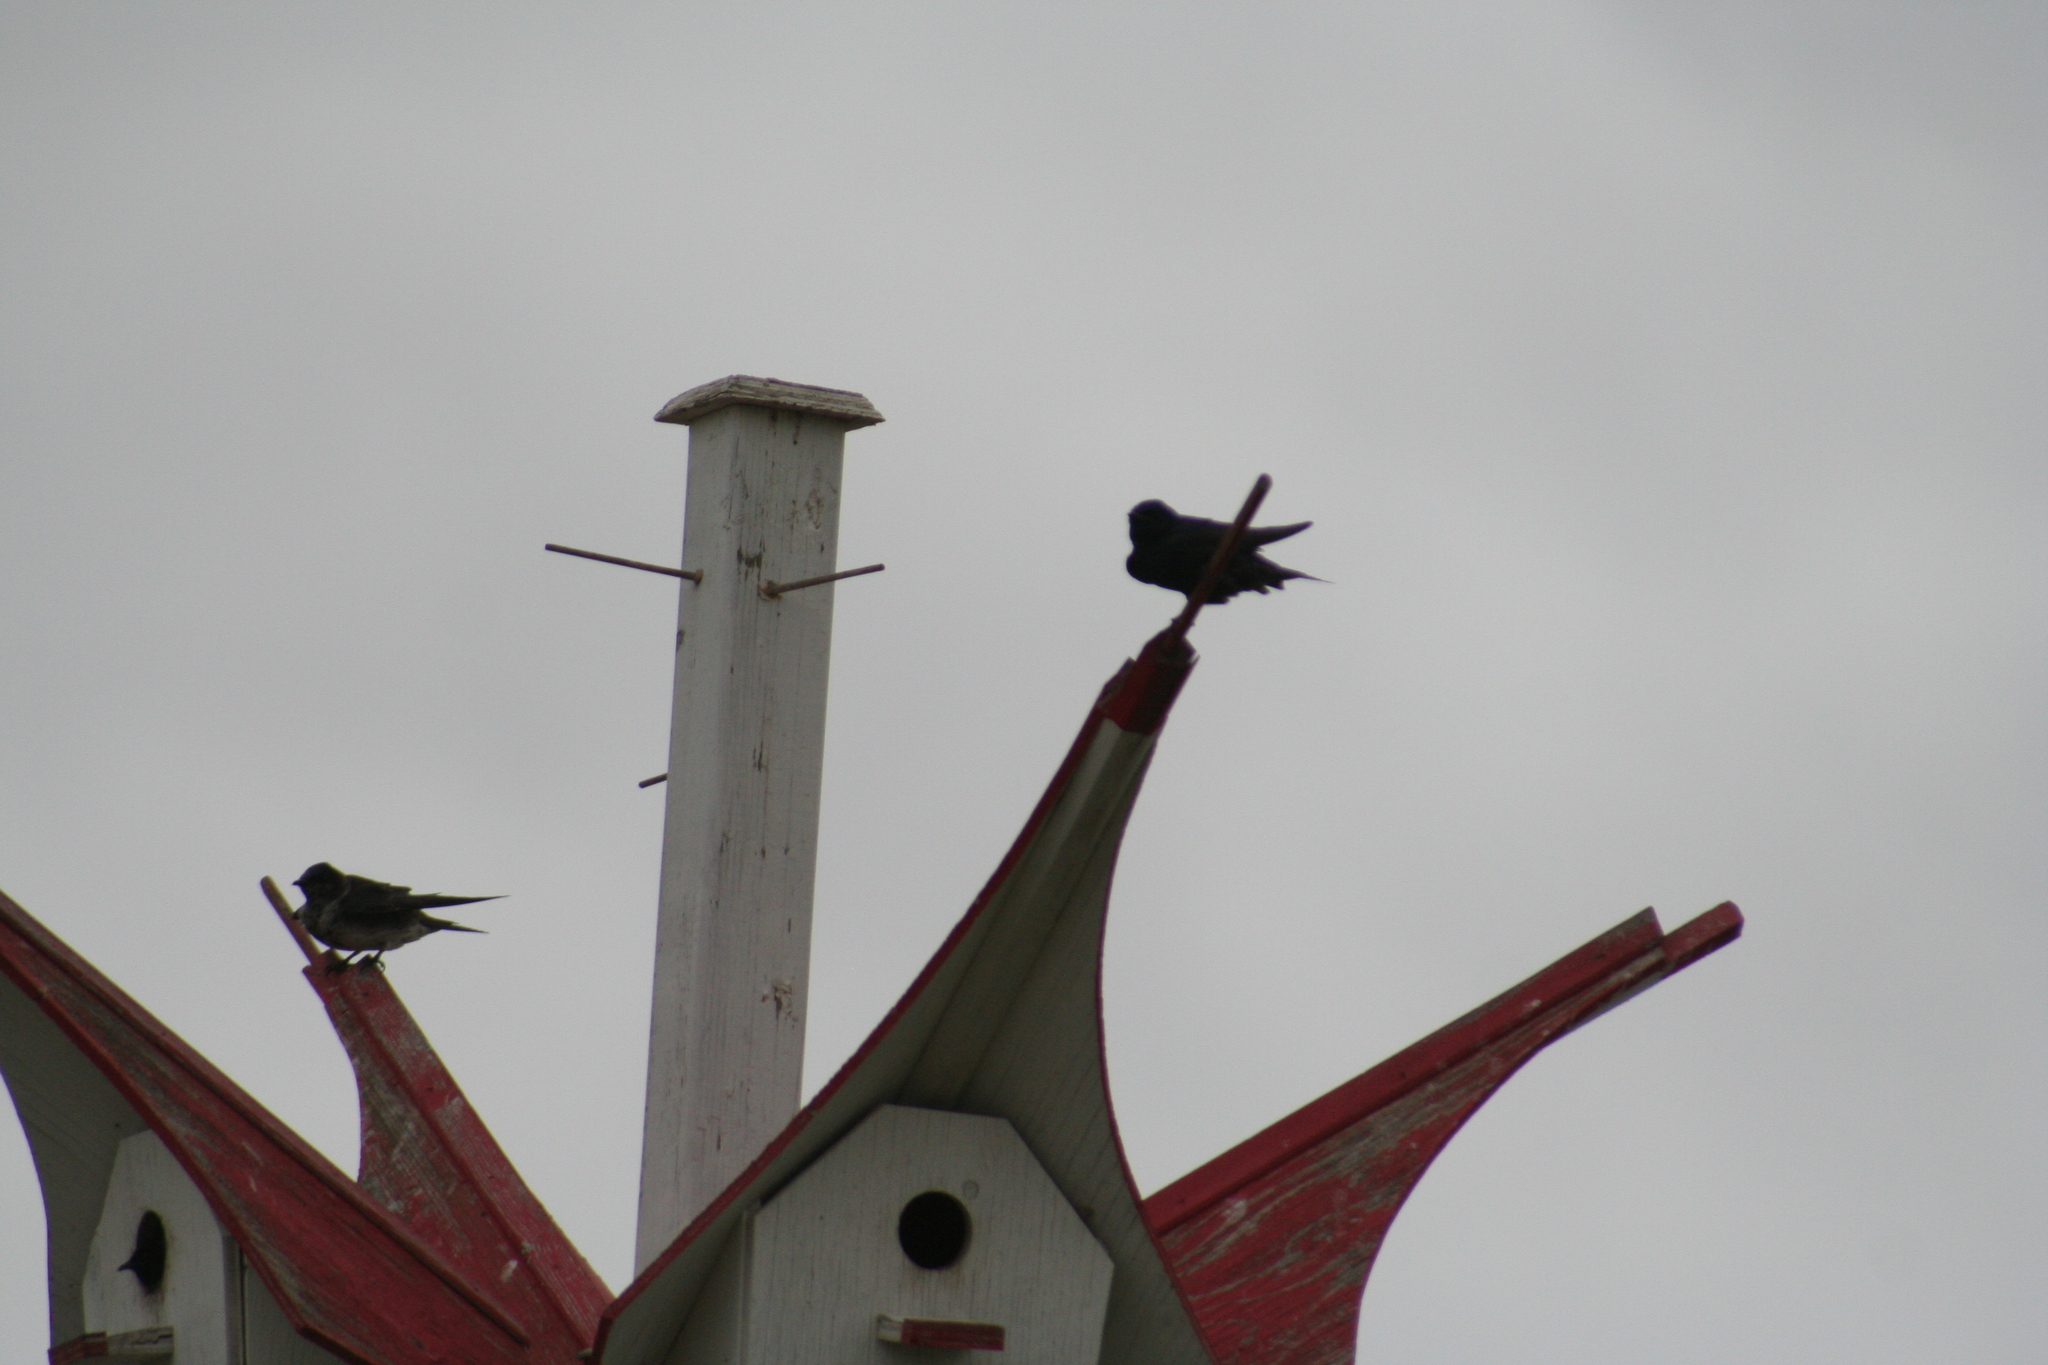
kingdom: Animalia
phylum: Chordata
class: Aves
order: Passeriformes
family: Hirundinidae
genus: Progne
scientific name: Progne subis
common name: Purple martin
